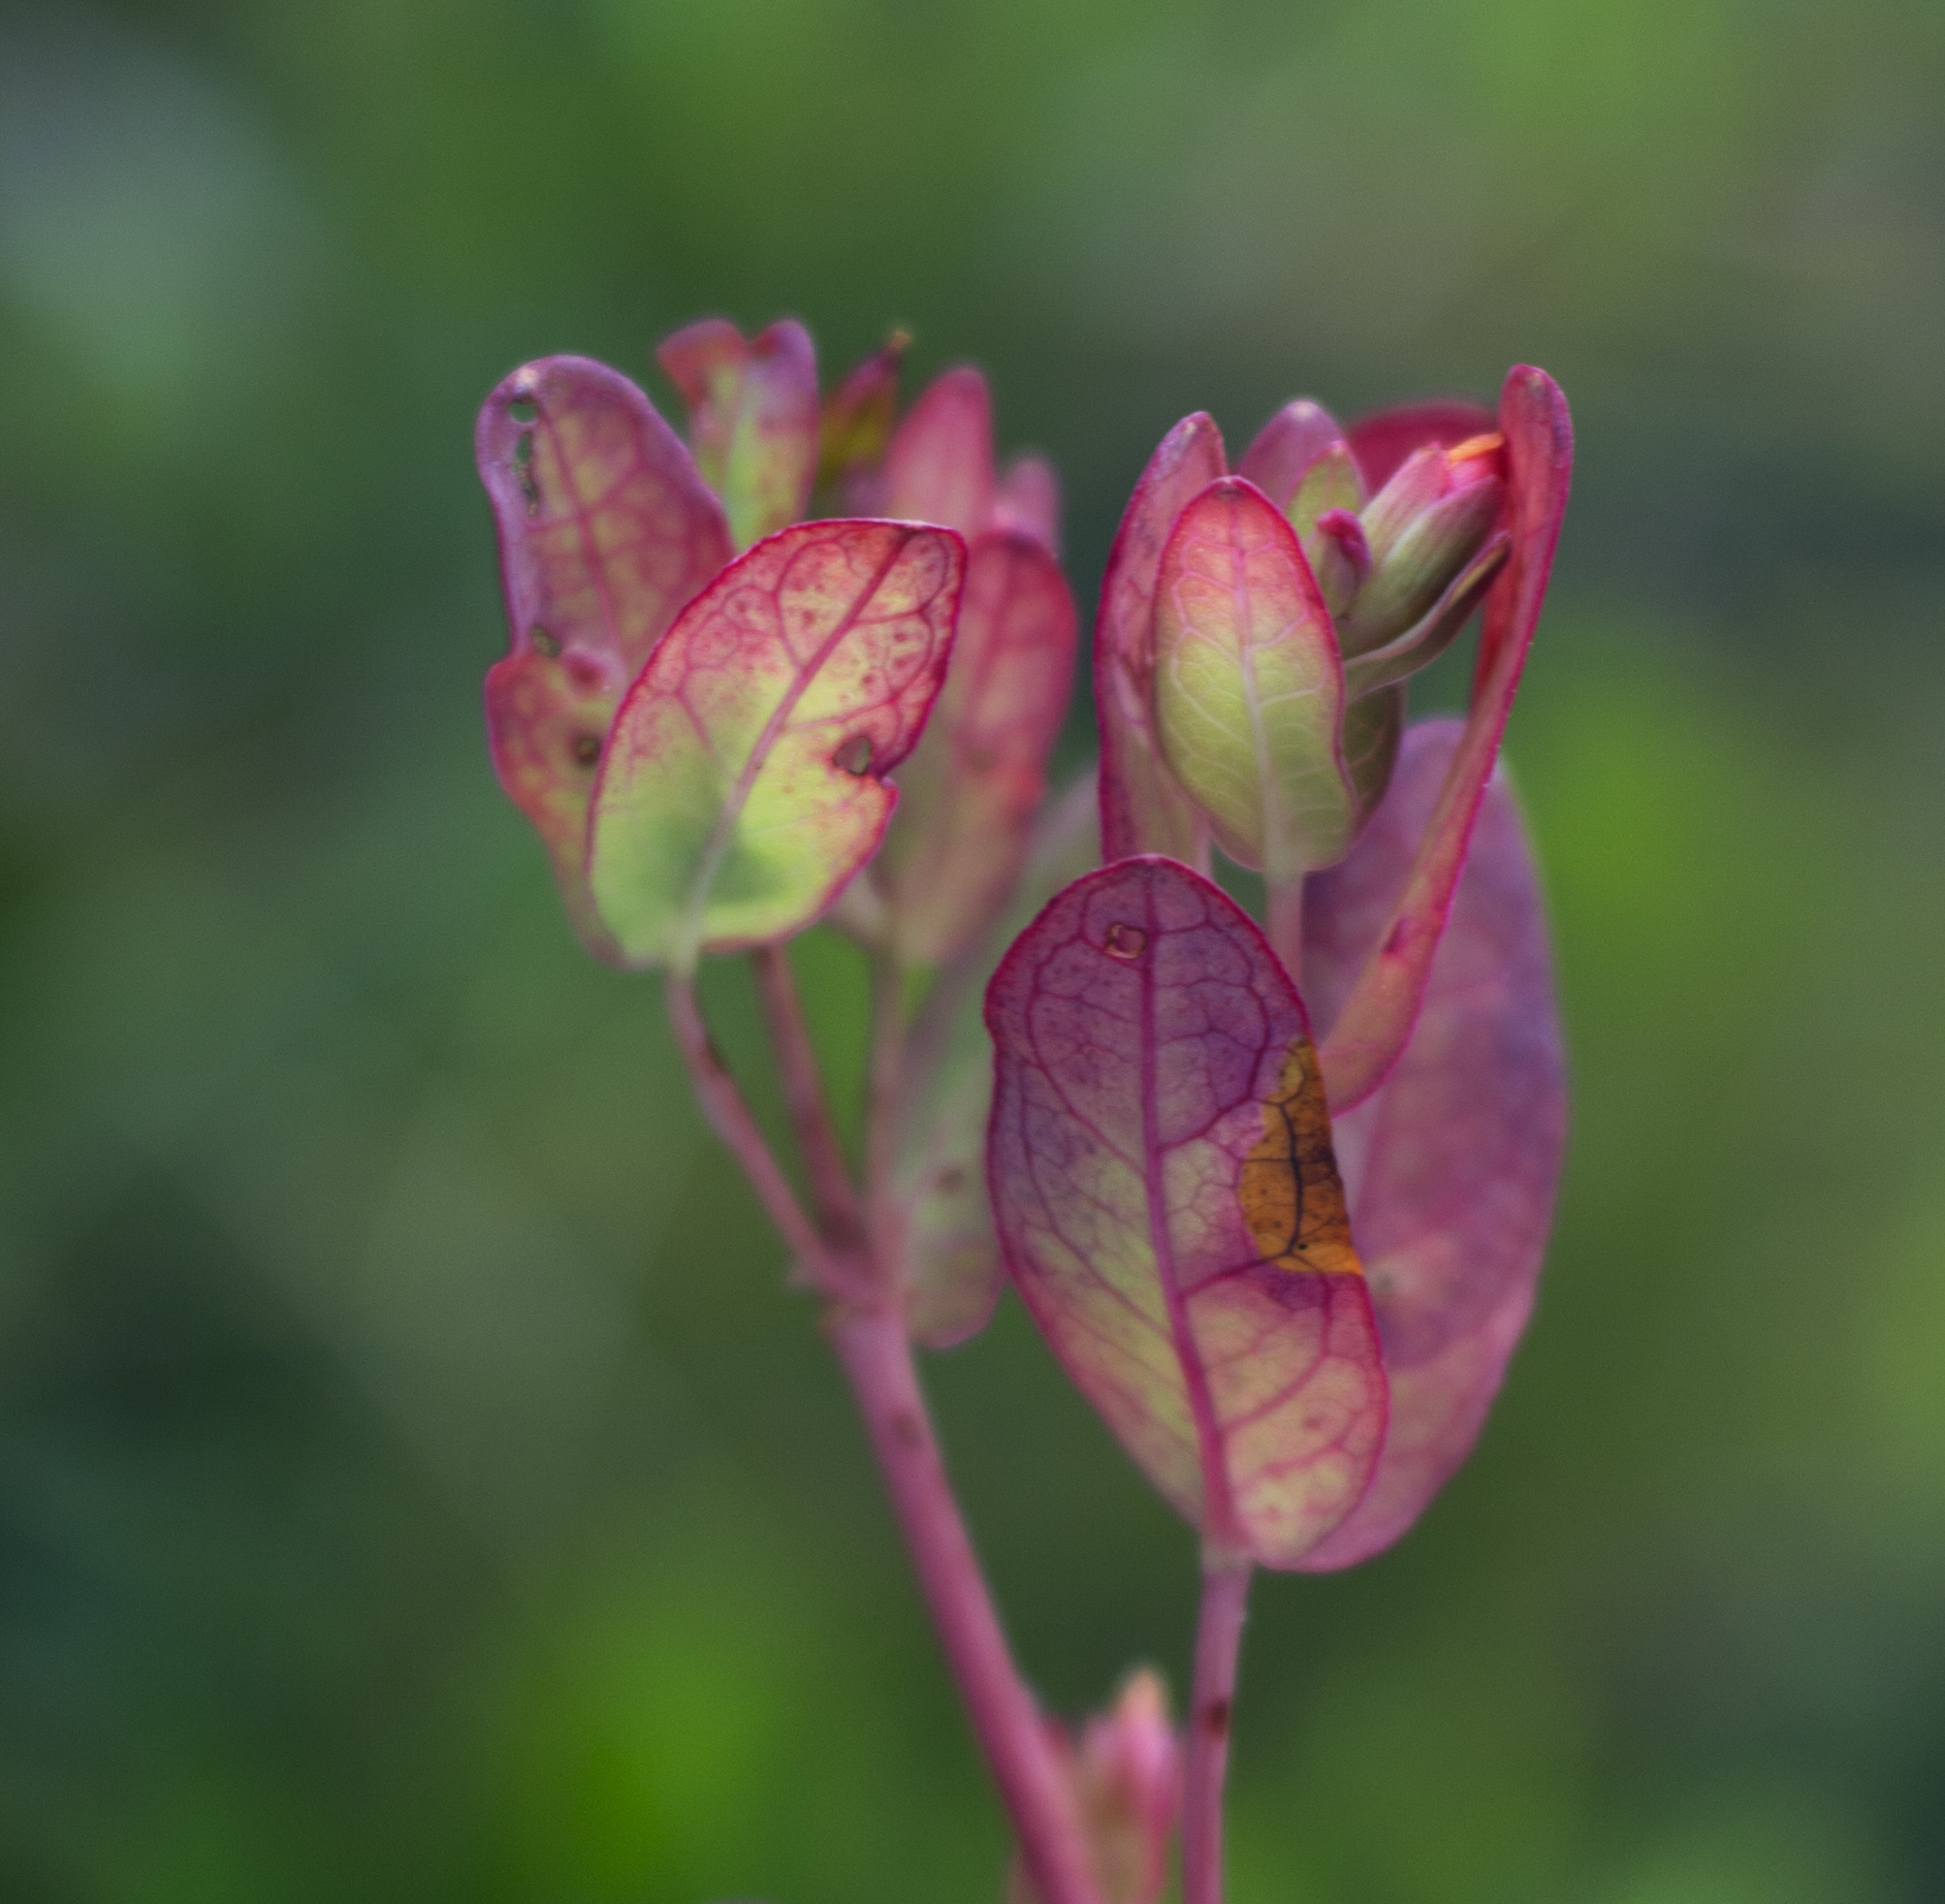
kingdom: Plantae
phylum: Tracheophyta
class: Magnoliopsida
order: Malpighiales
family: Hypericaceae
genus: Triadenum
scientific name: Triadenum fraseri
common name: Fraser's marsh st. johnswort
